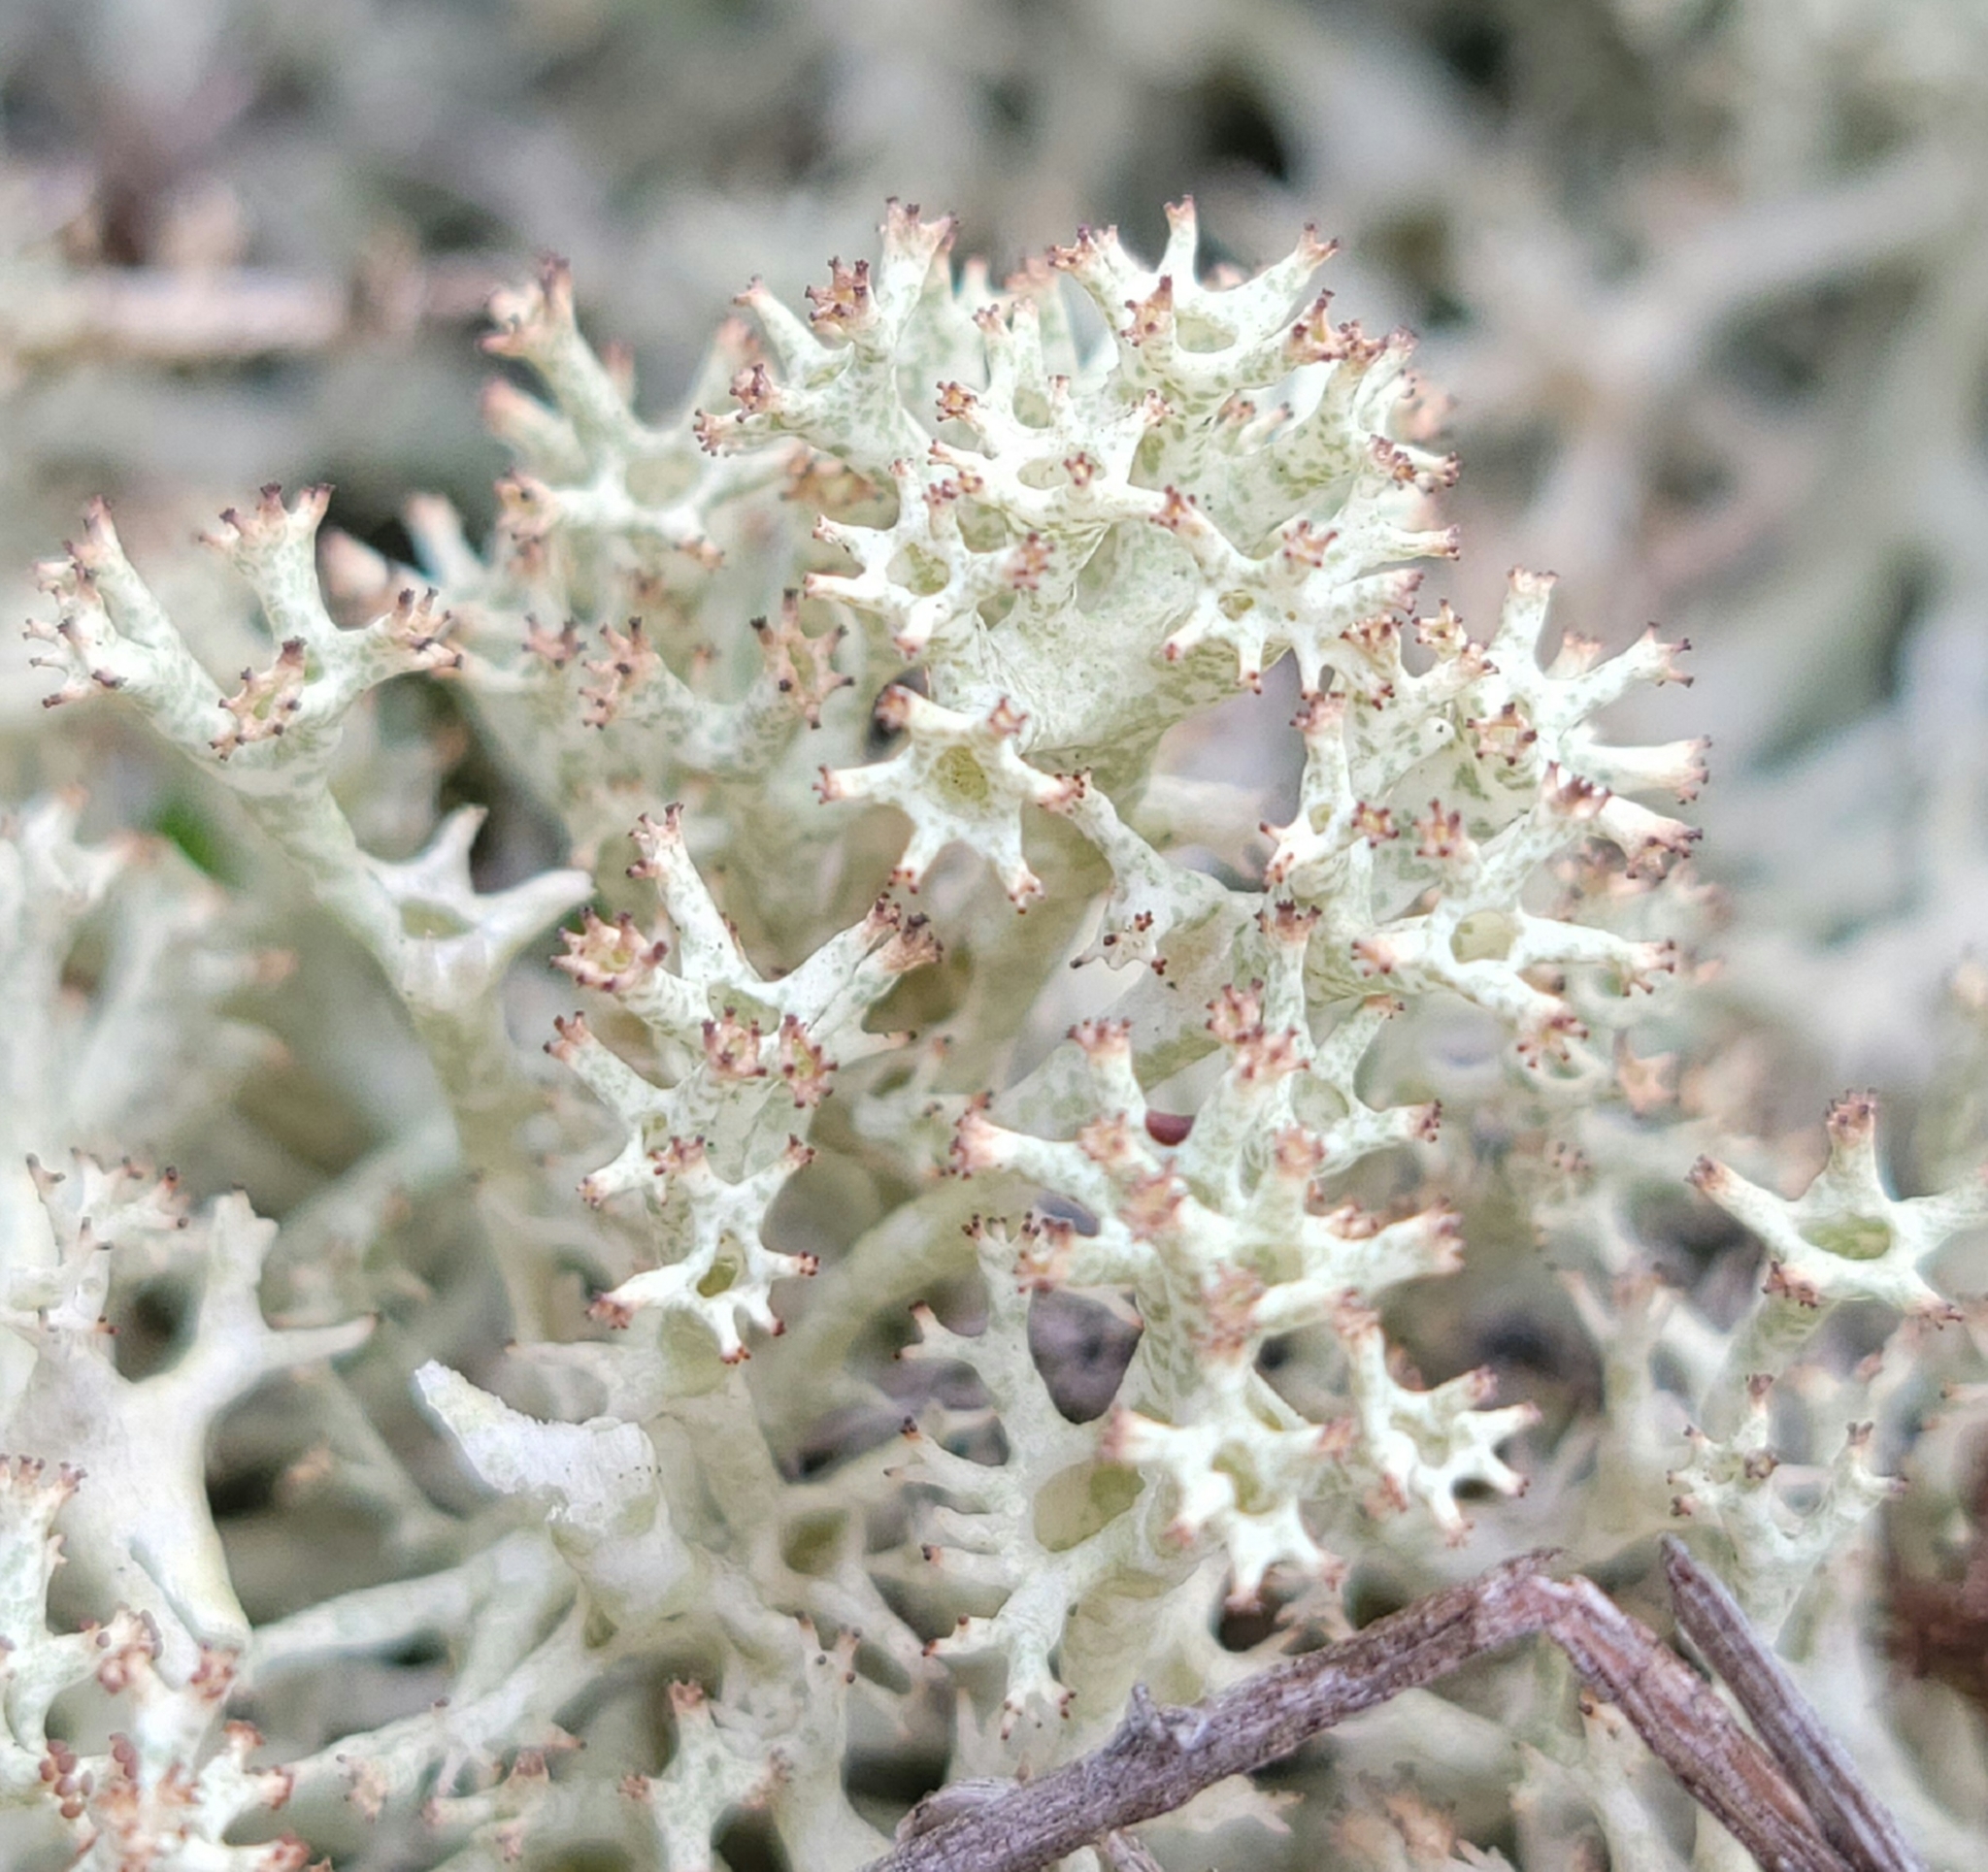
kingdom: Fungi
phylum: Ascomycota
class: Lecanoromycetes
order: Lecanorales
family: Cladoniaceae
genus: Cladonia
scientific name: Cladonia uncialis
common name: Thorn lichen
